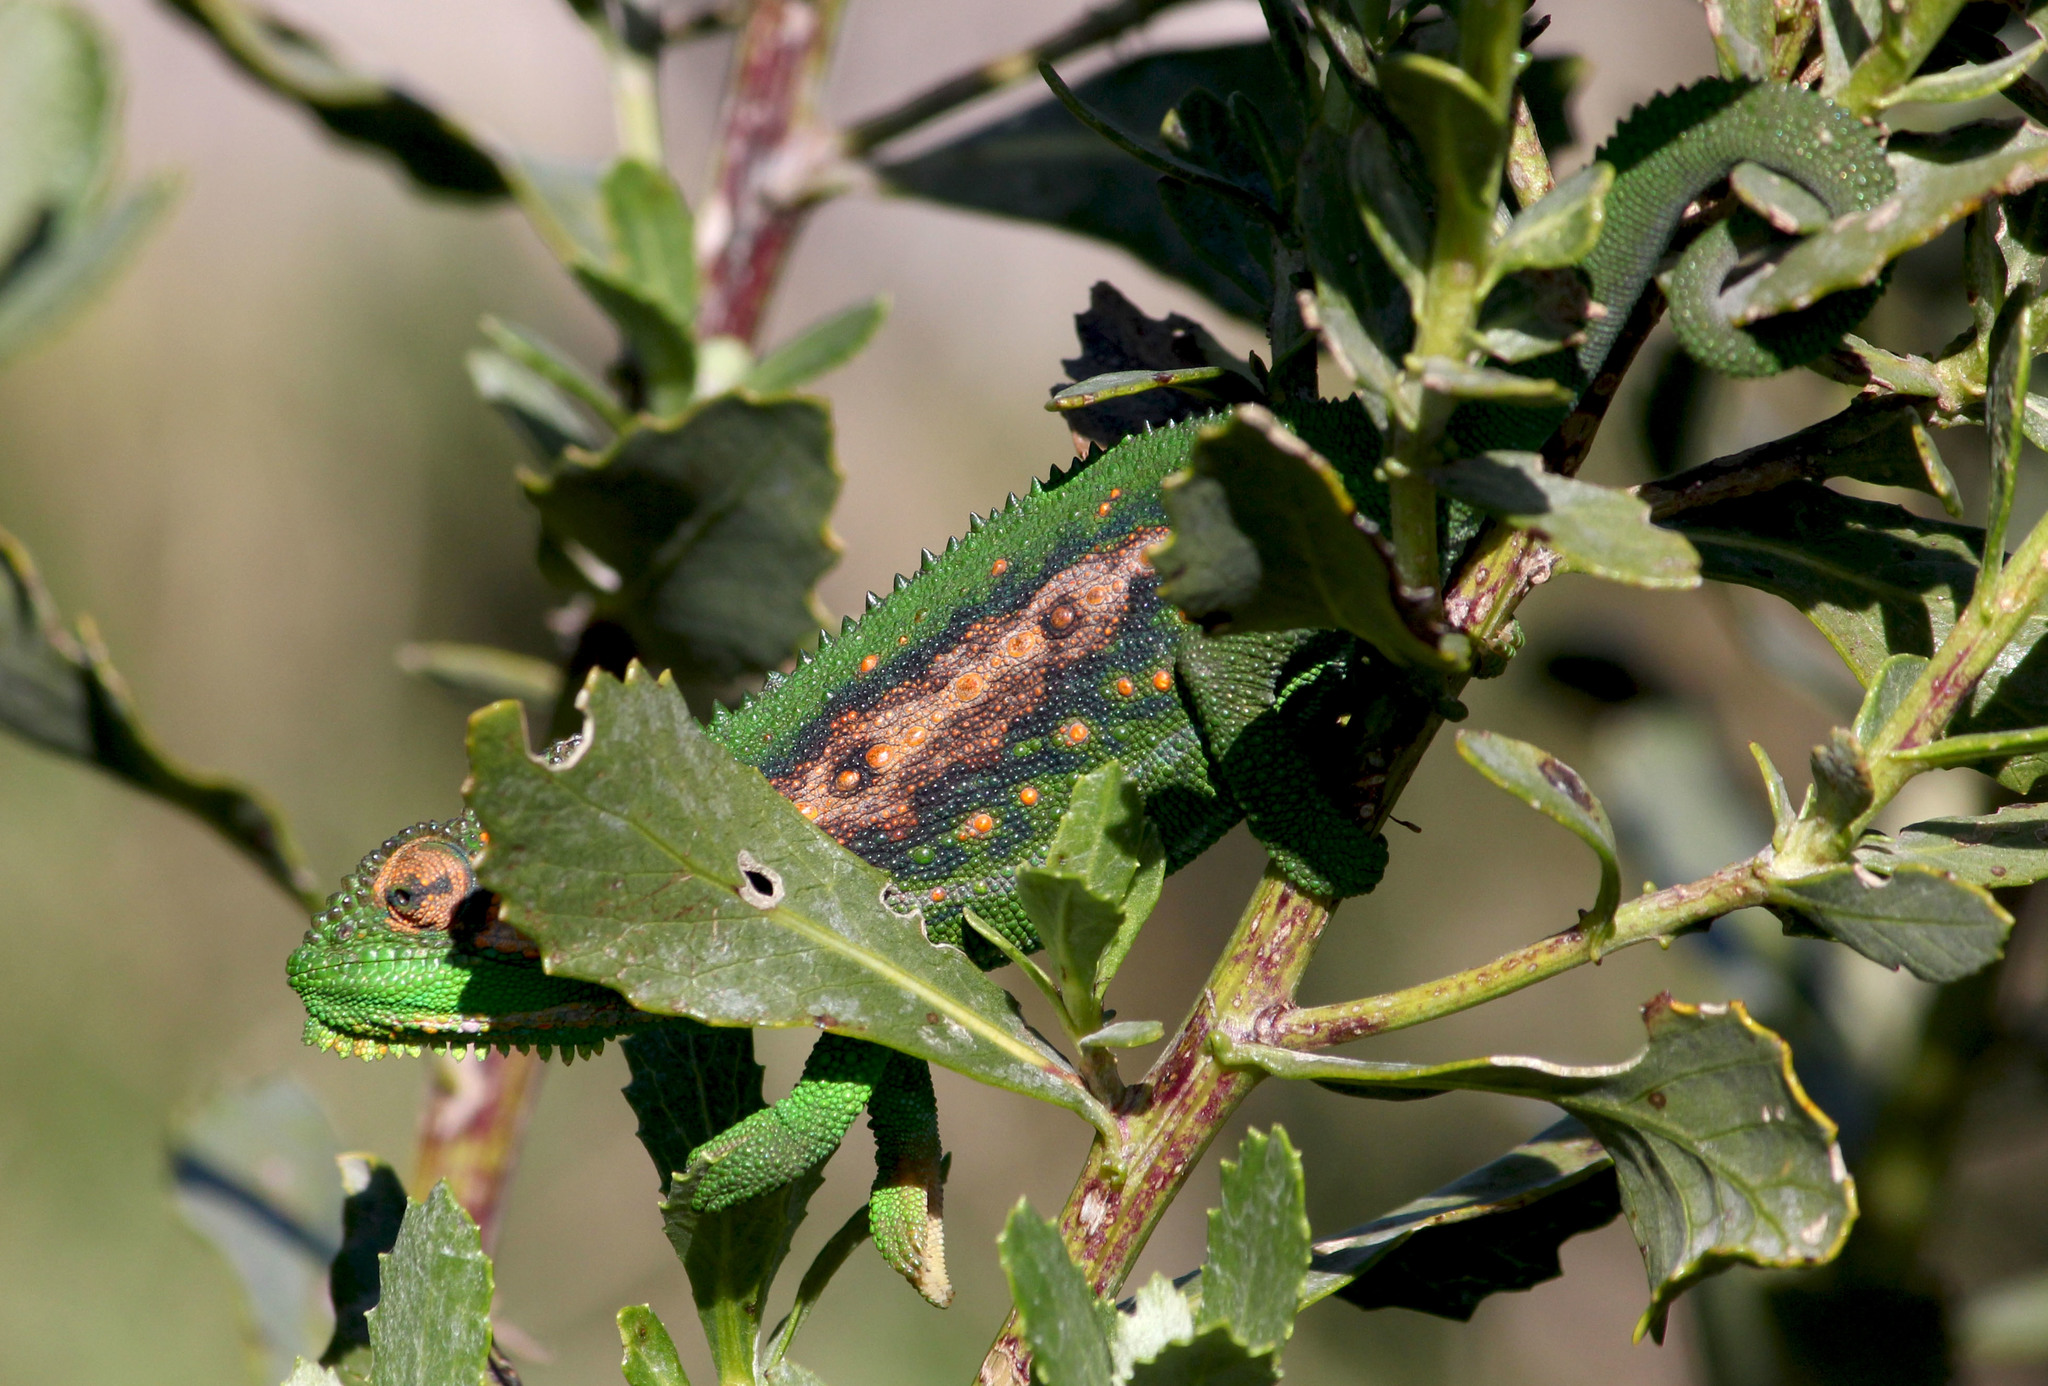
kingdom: Animalia
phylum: Chordata
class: Squamata
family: Chamaeleonidae
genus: Bradypodion
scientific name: Bradypodion pumilum
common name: Cape dwarf chameleon
